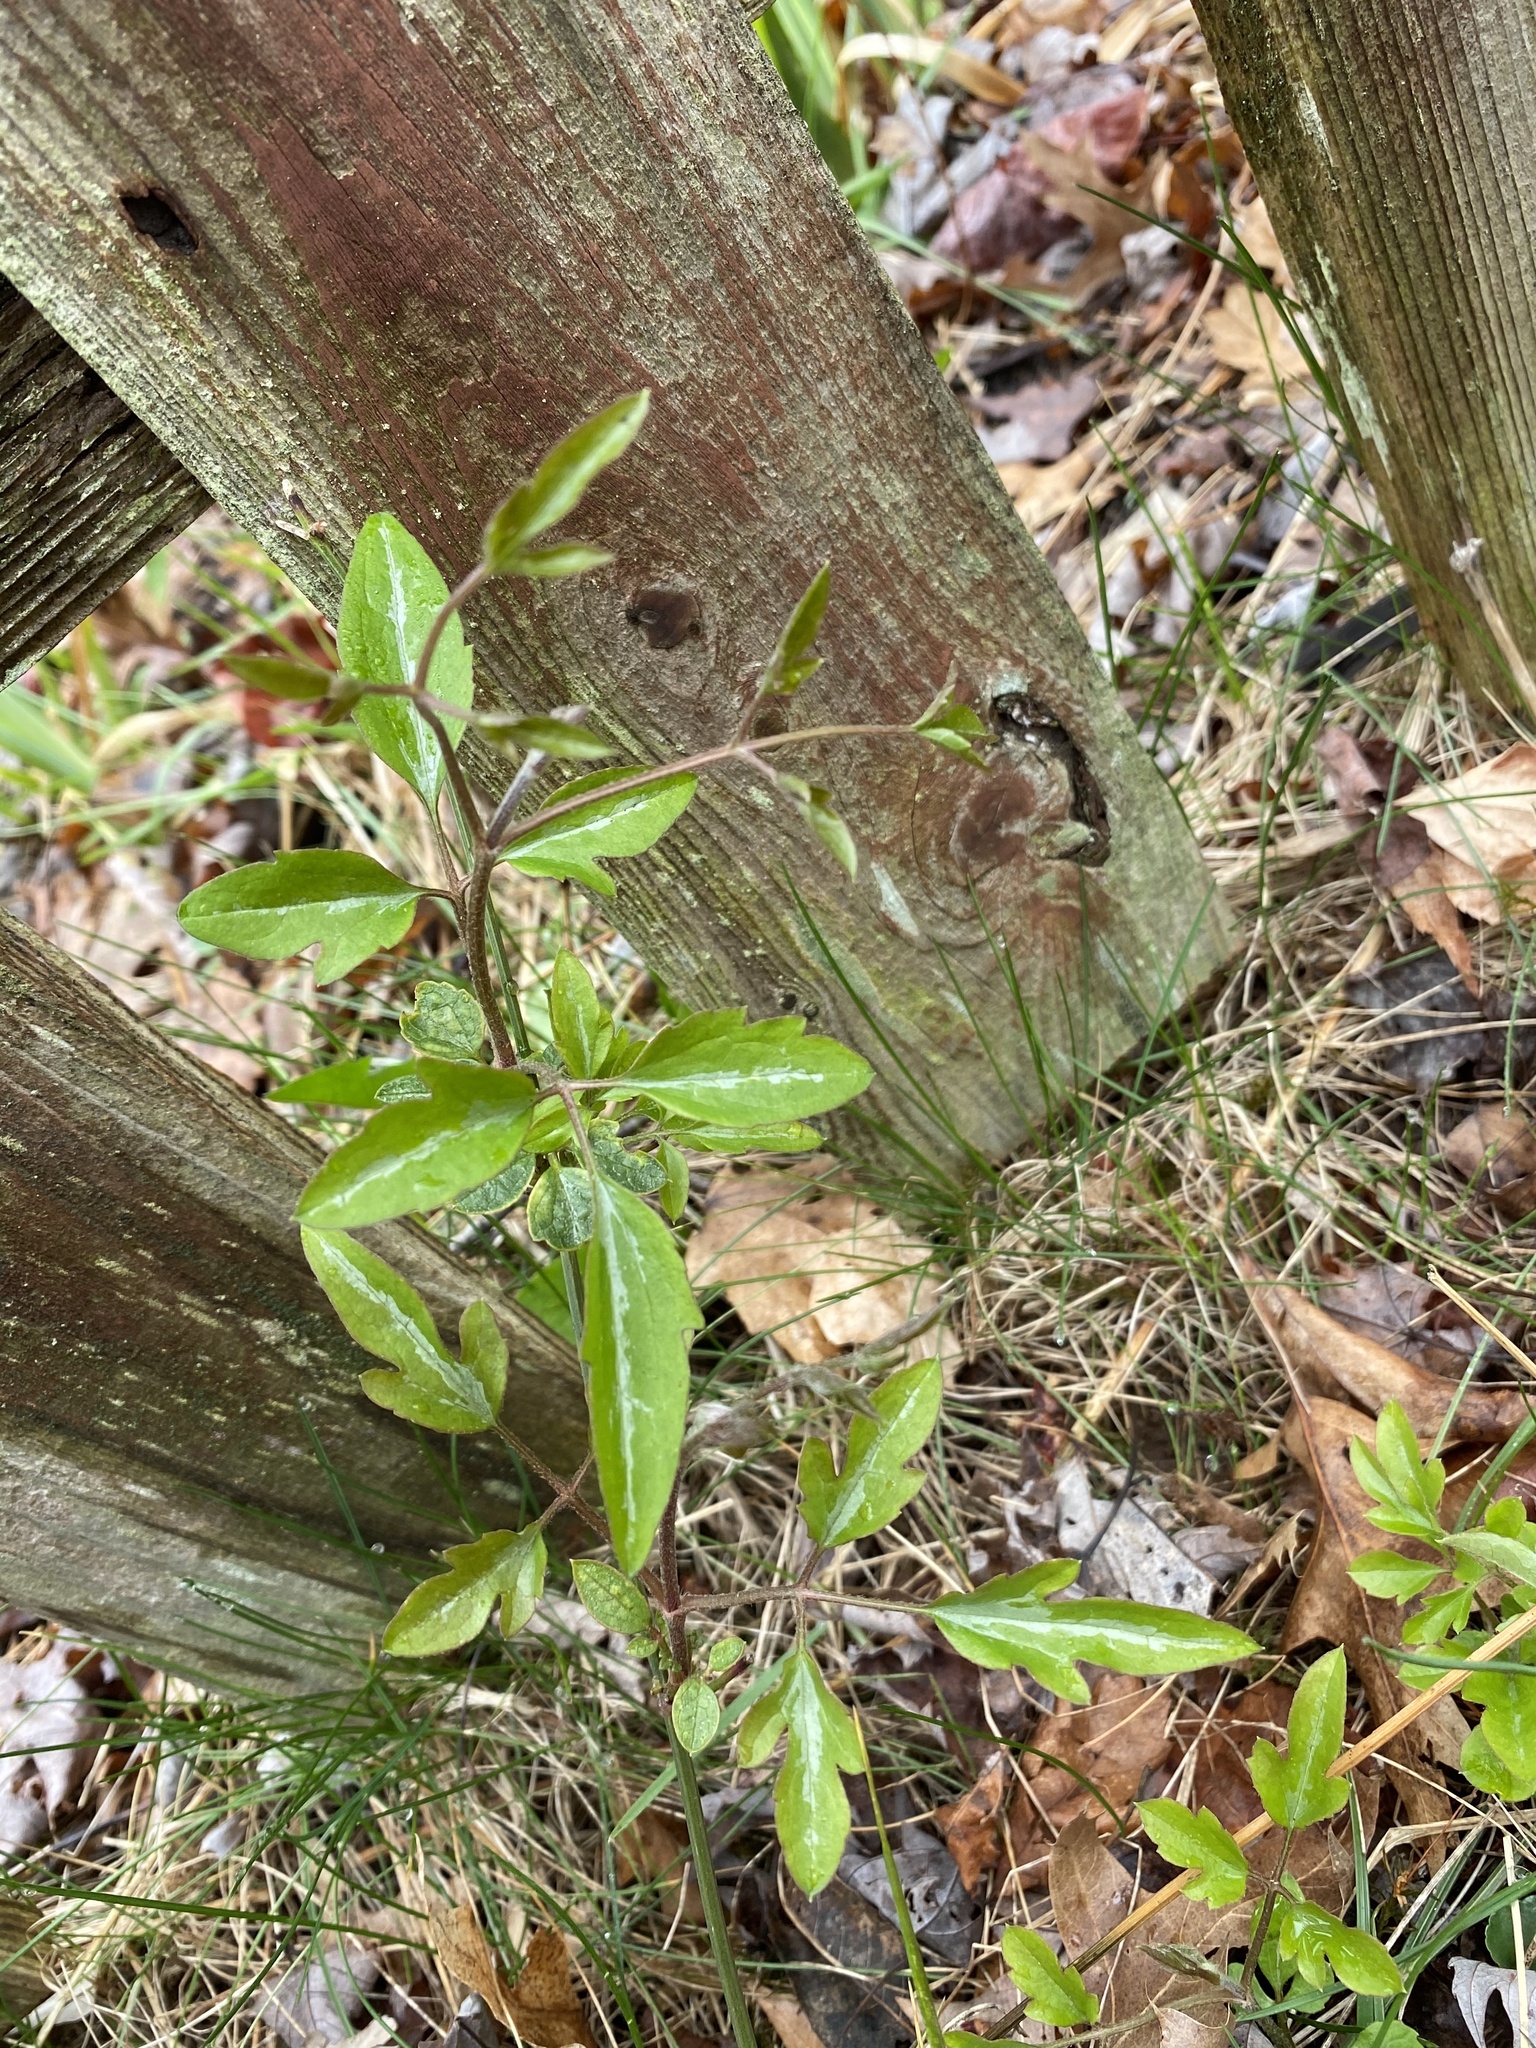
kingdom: Plantae
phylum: Tracheophyta
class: Magnoliopsida
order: Ranunculales
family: Ranunculaceae
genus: Clematis
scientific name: Clematis terniflora
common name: Sweet autumn clematis
